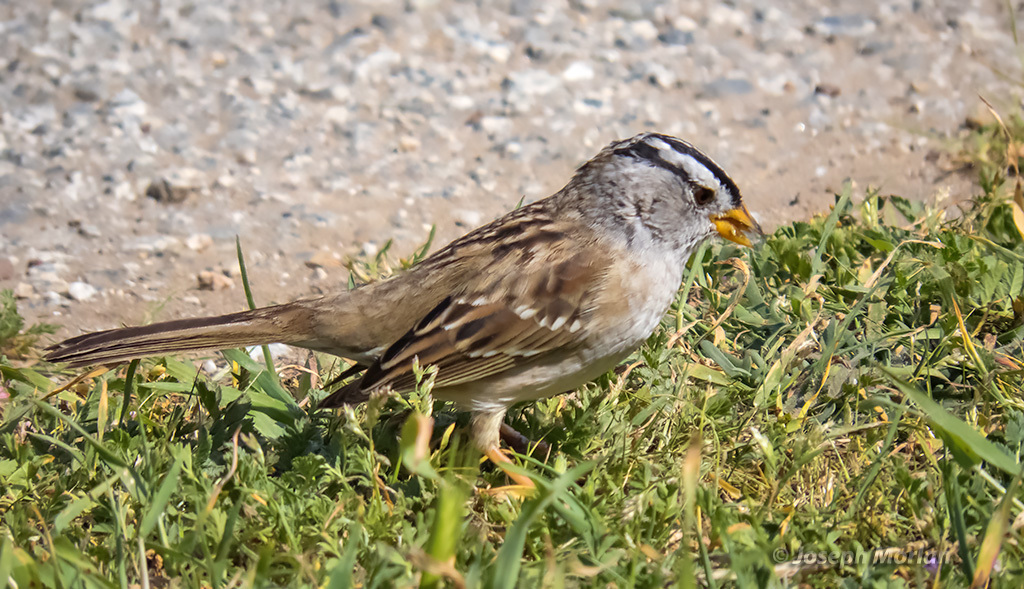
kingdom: Animalia
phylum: Chordata
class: Aves
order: Passeriformes
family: Passerellidae
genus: Zonotrichia
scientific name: Zonotrichia leucophrys
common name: White-crowned sparrow
